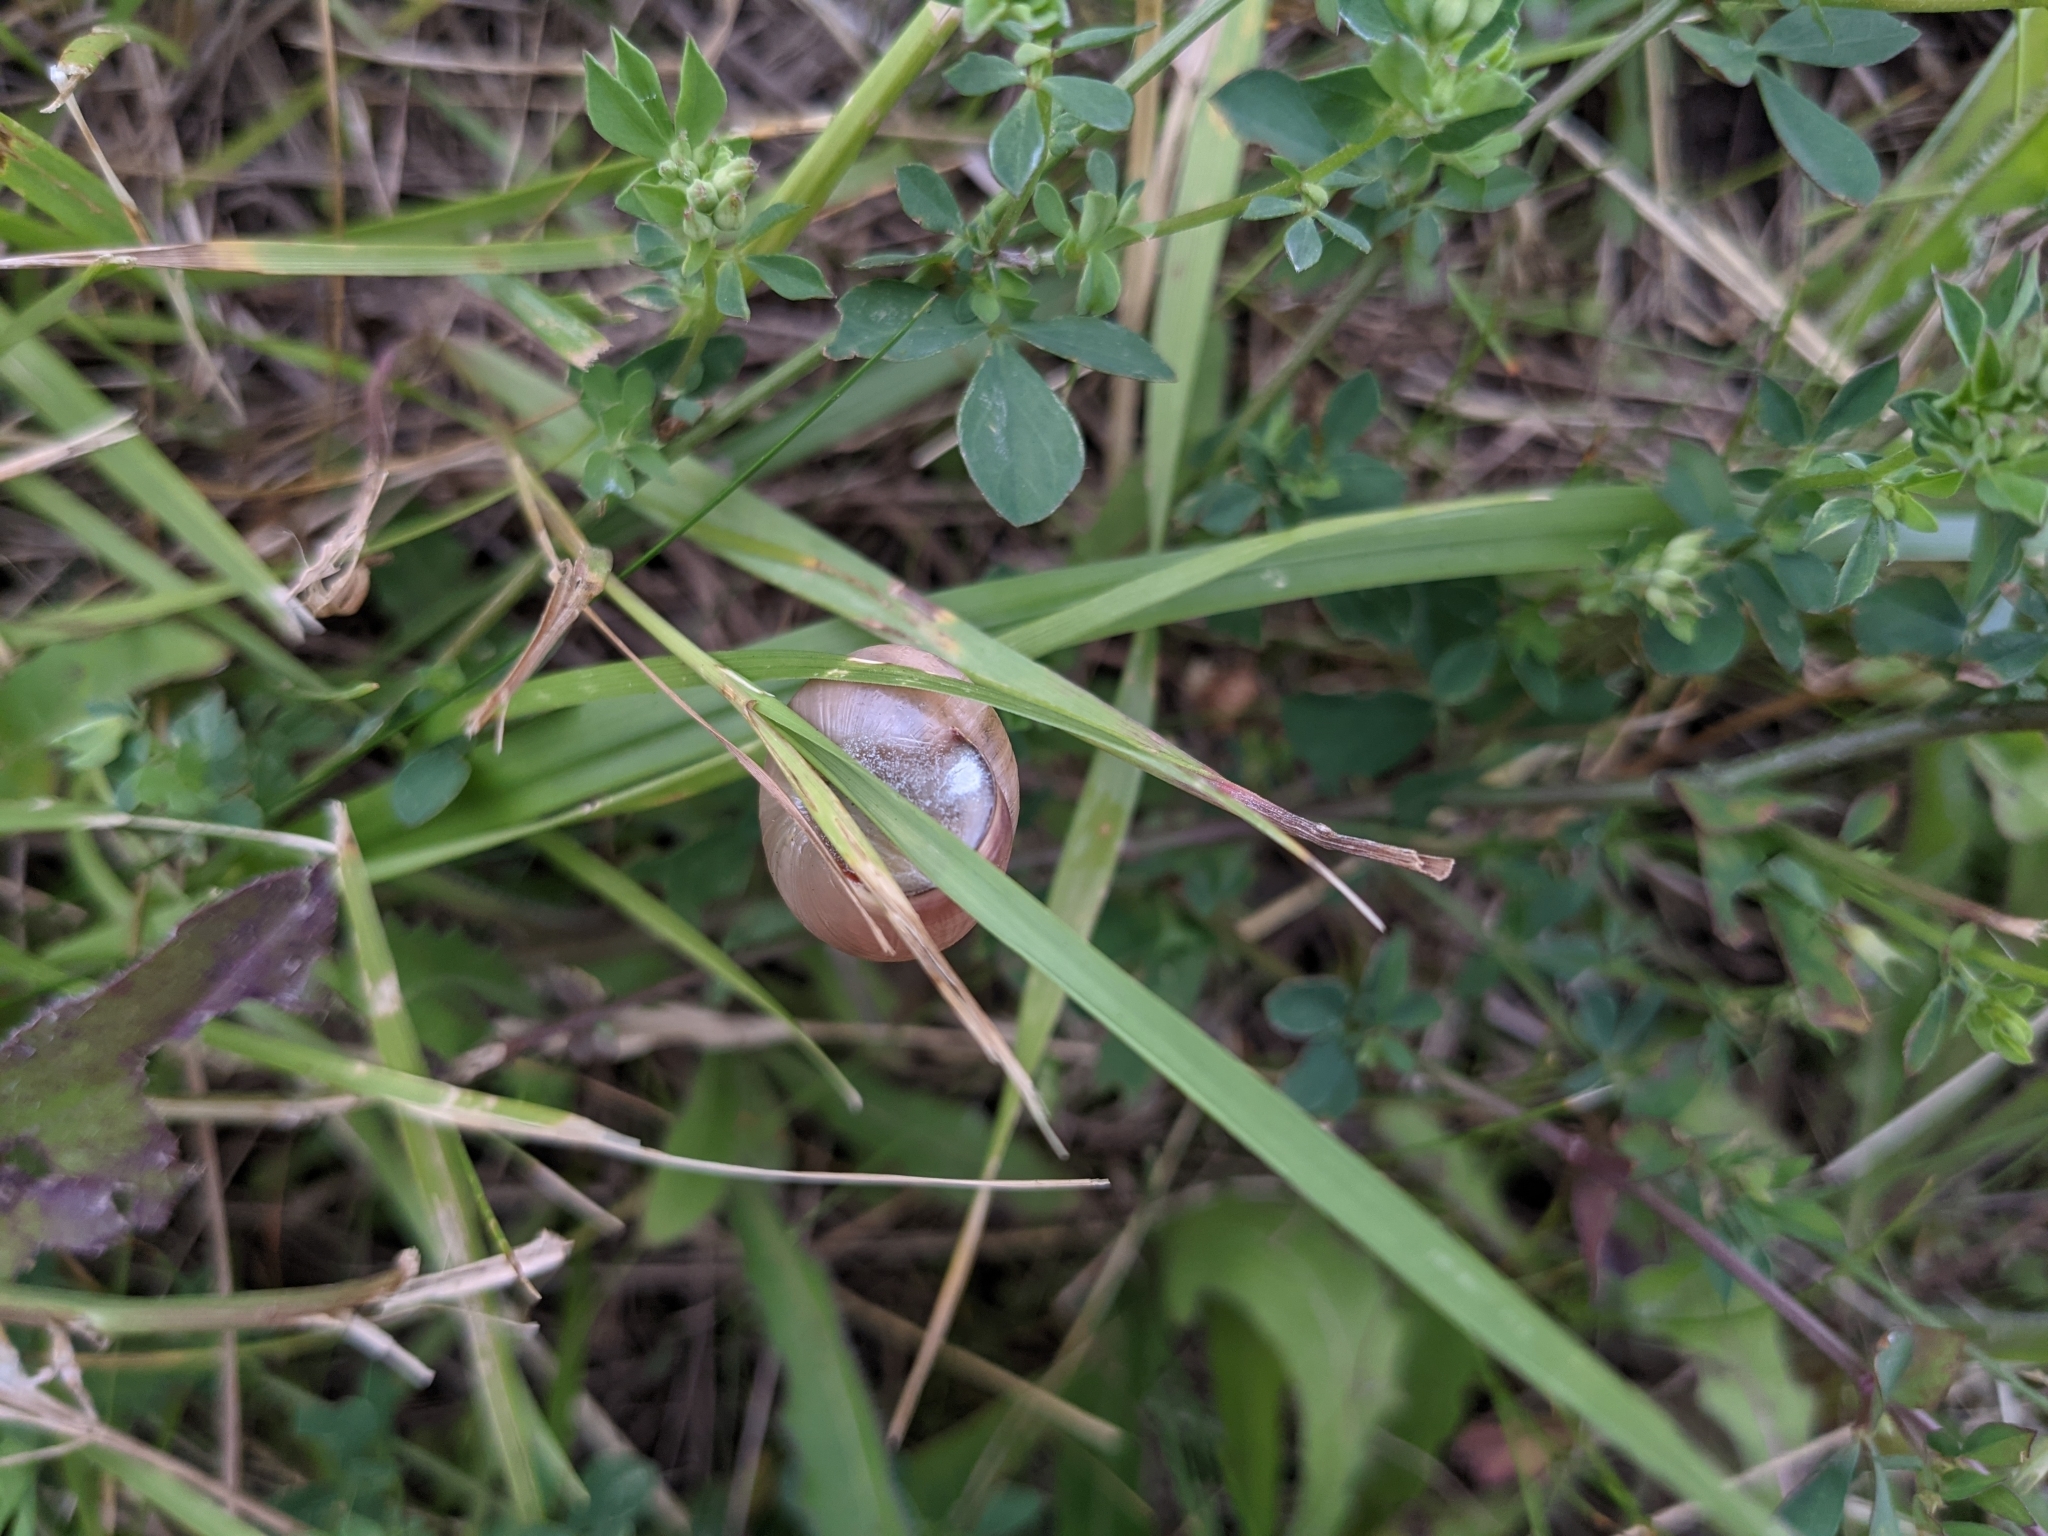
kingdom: Animalia
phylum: Mollusca
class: Gastropoda
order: Stylommatophora
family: Helicidae
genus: Cepaea
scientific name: Cepaea nemoralis
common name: Grovesnail
